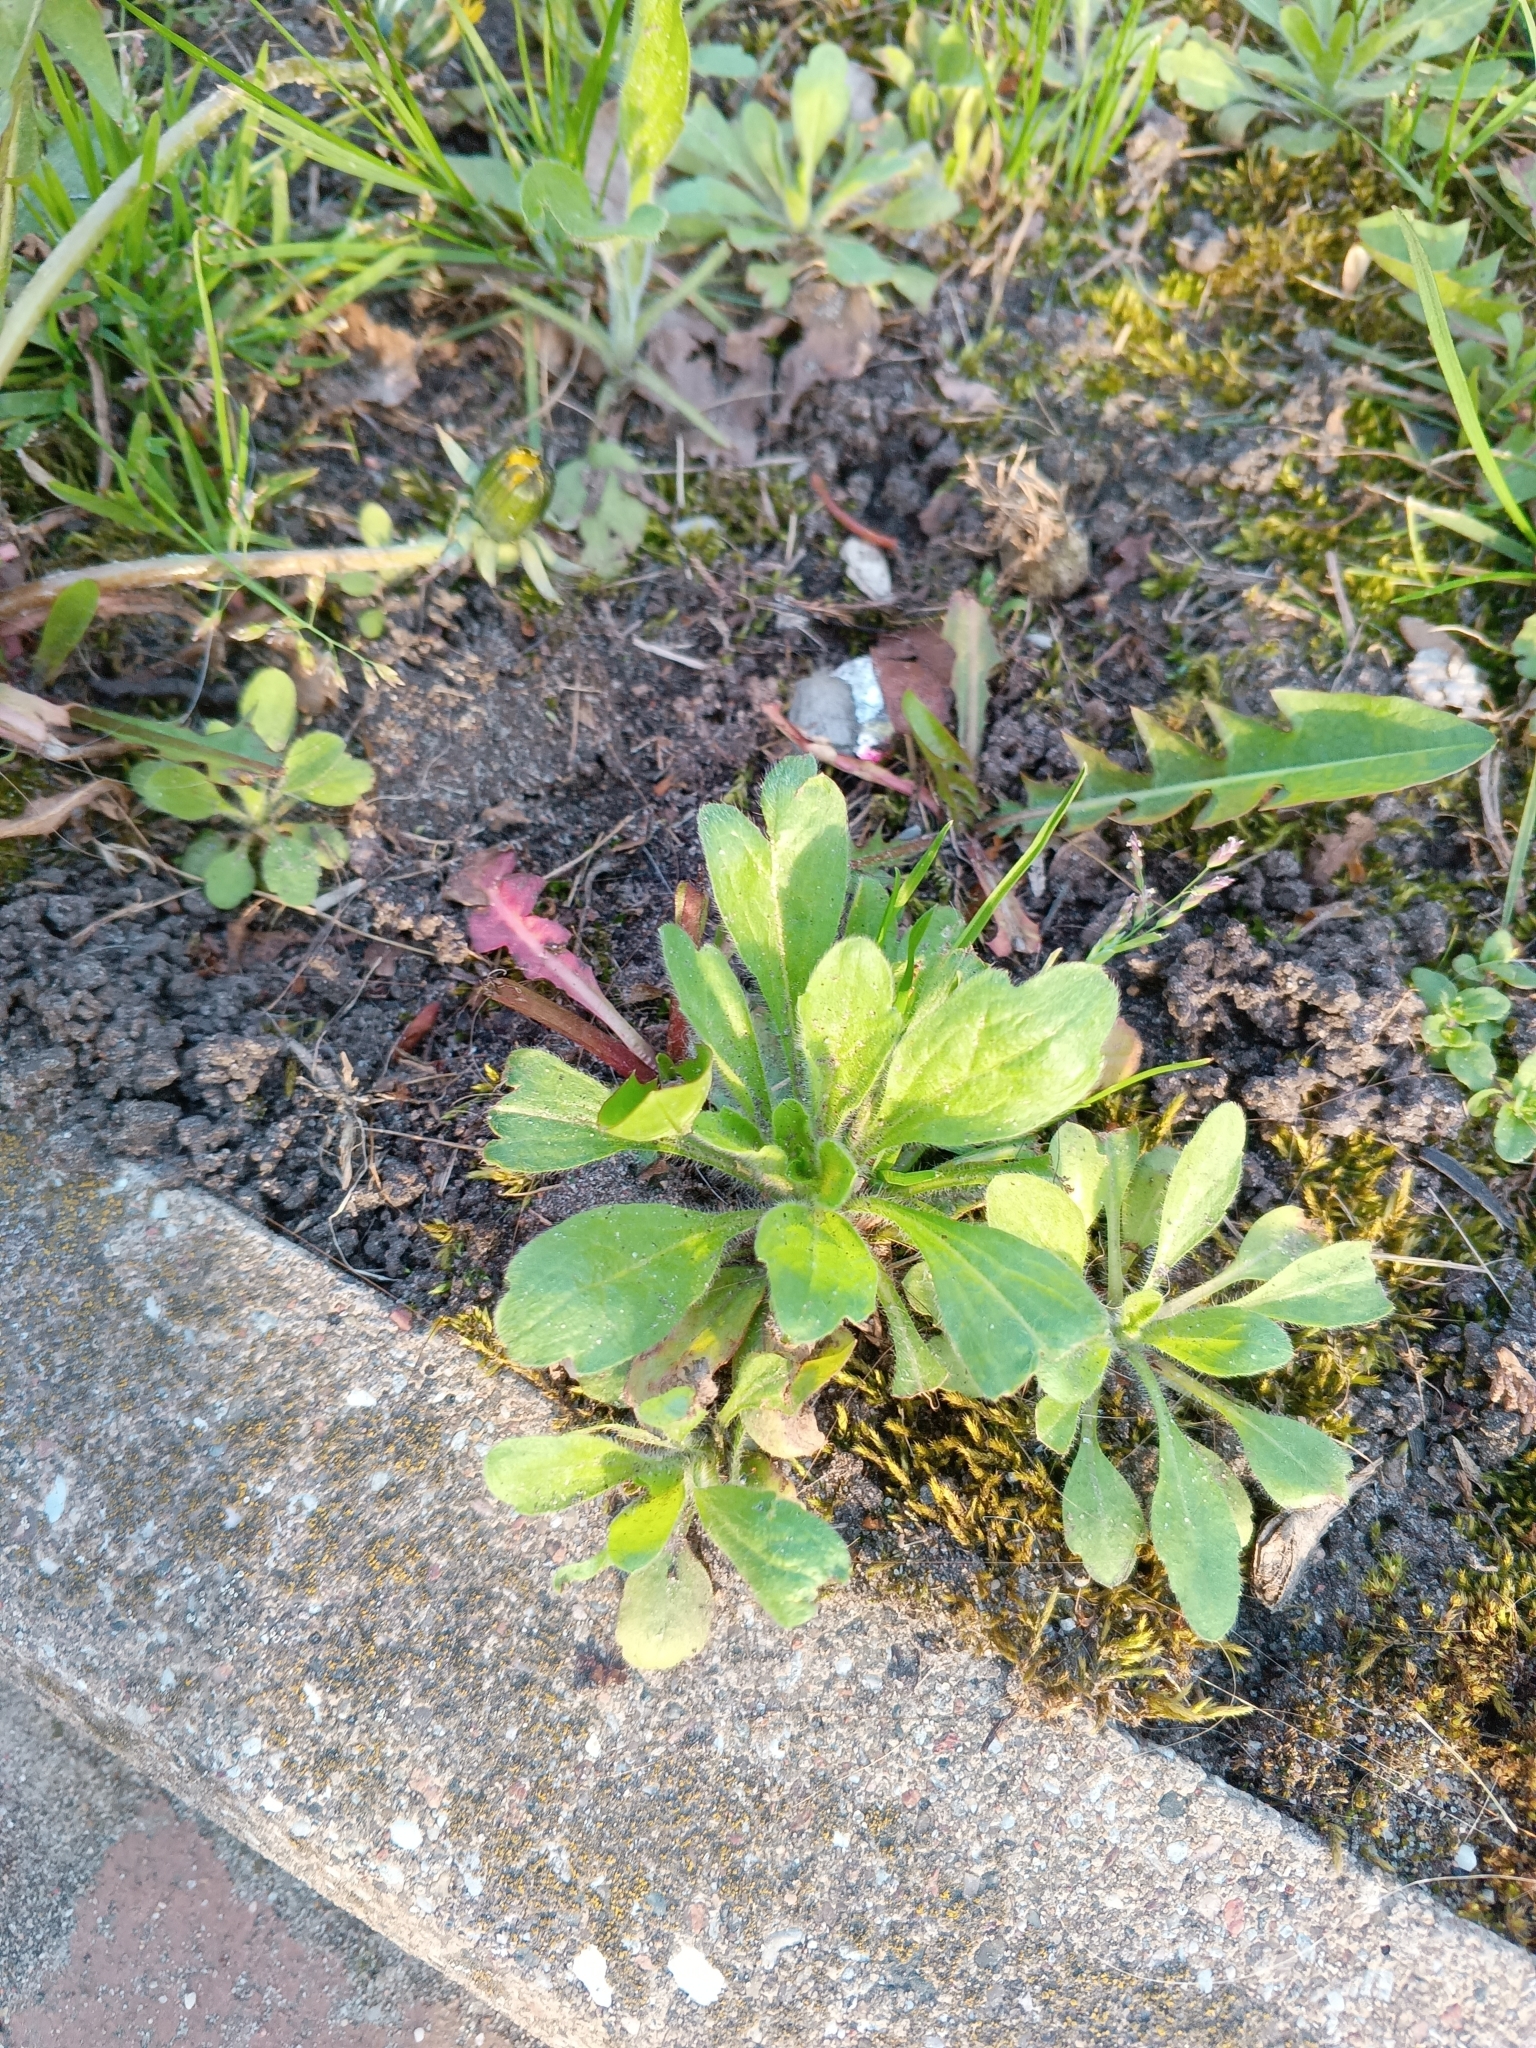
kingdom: Plantae
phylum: Tracheophyta
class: Magnoliopsida
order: Asterales
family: Asteraceae
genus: Erigeron
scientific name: Erigeron canadensis
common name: Canadian fleabane
